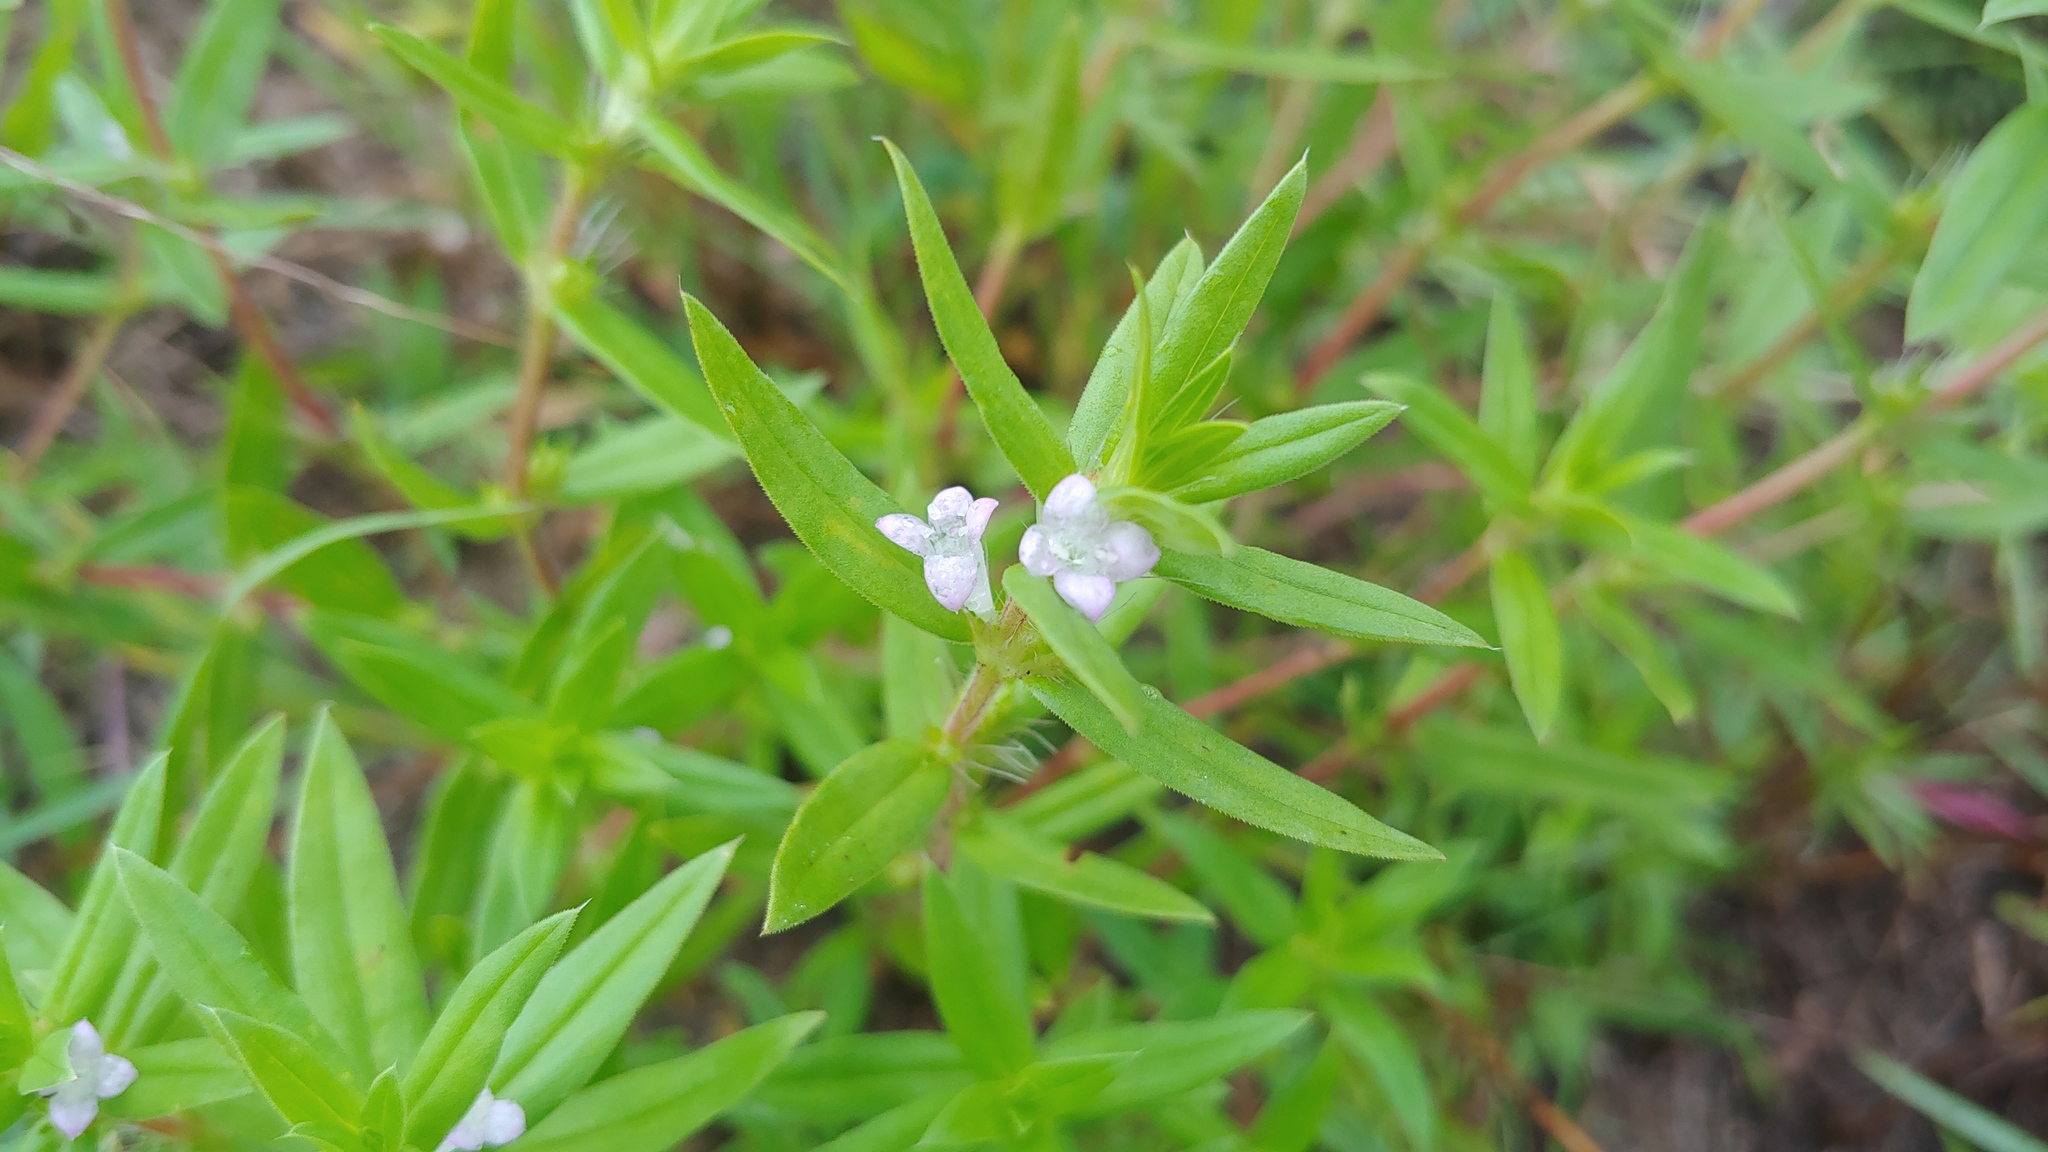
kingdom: Plantae
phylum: Tracheophyta
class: Magnoliopsida
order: Gentianales
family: Rubiaceae
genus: Hexasepalum
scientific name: Hexasepalum teres
